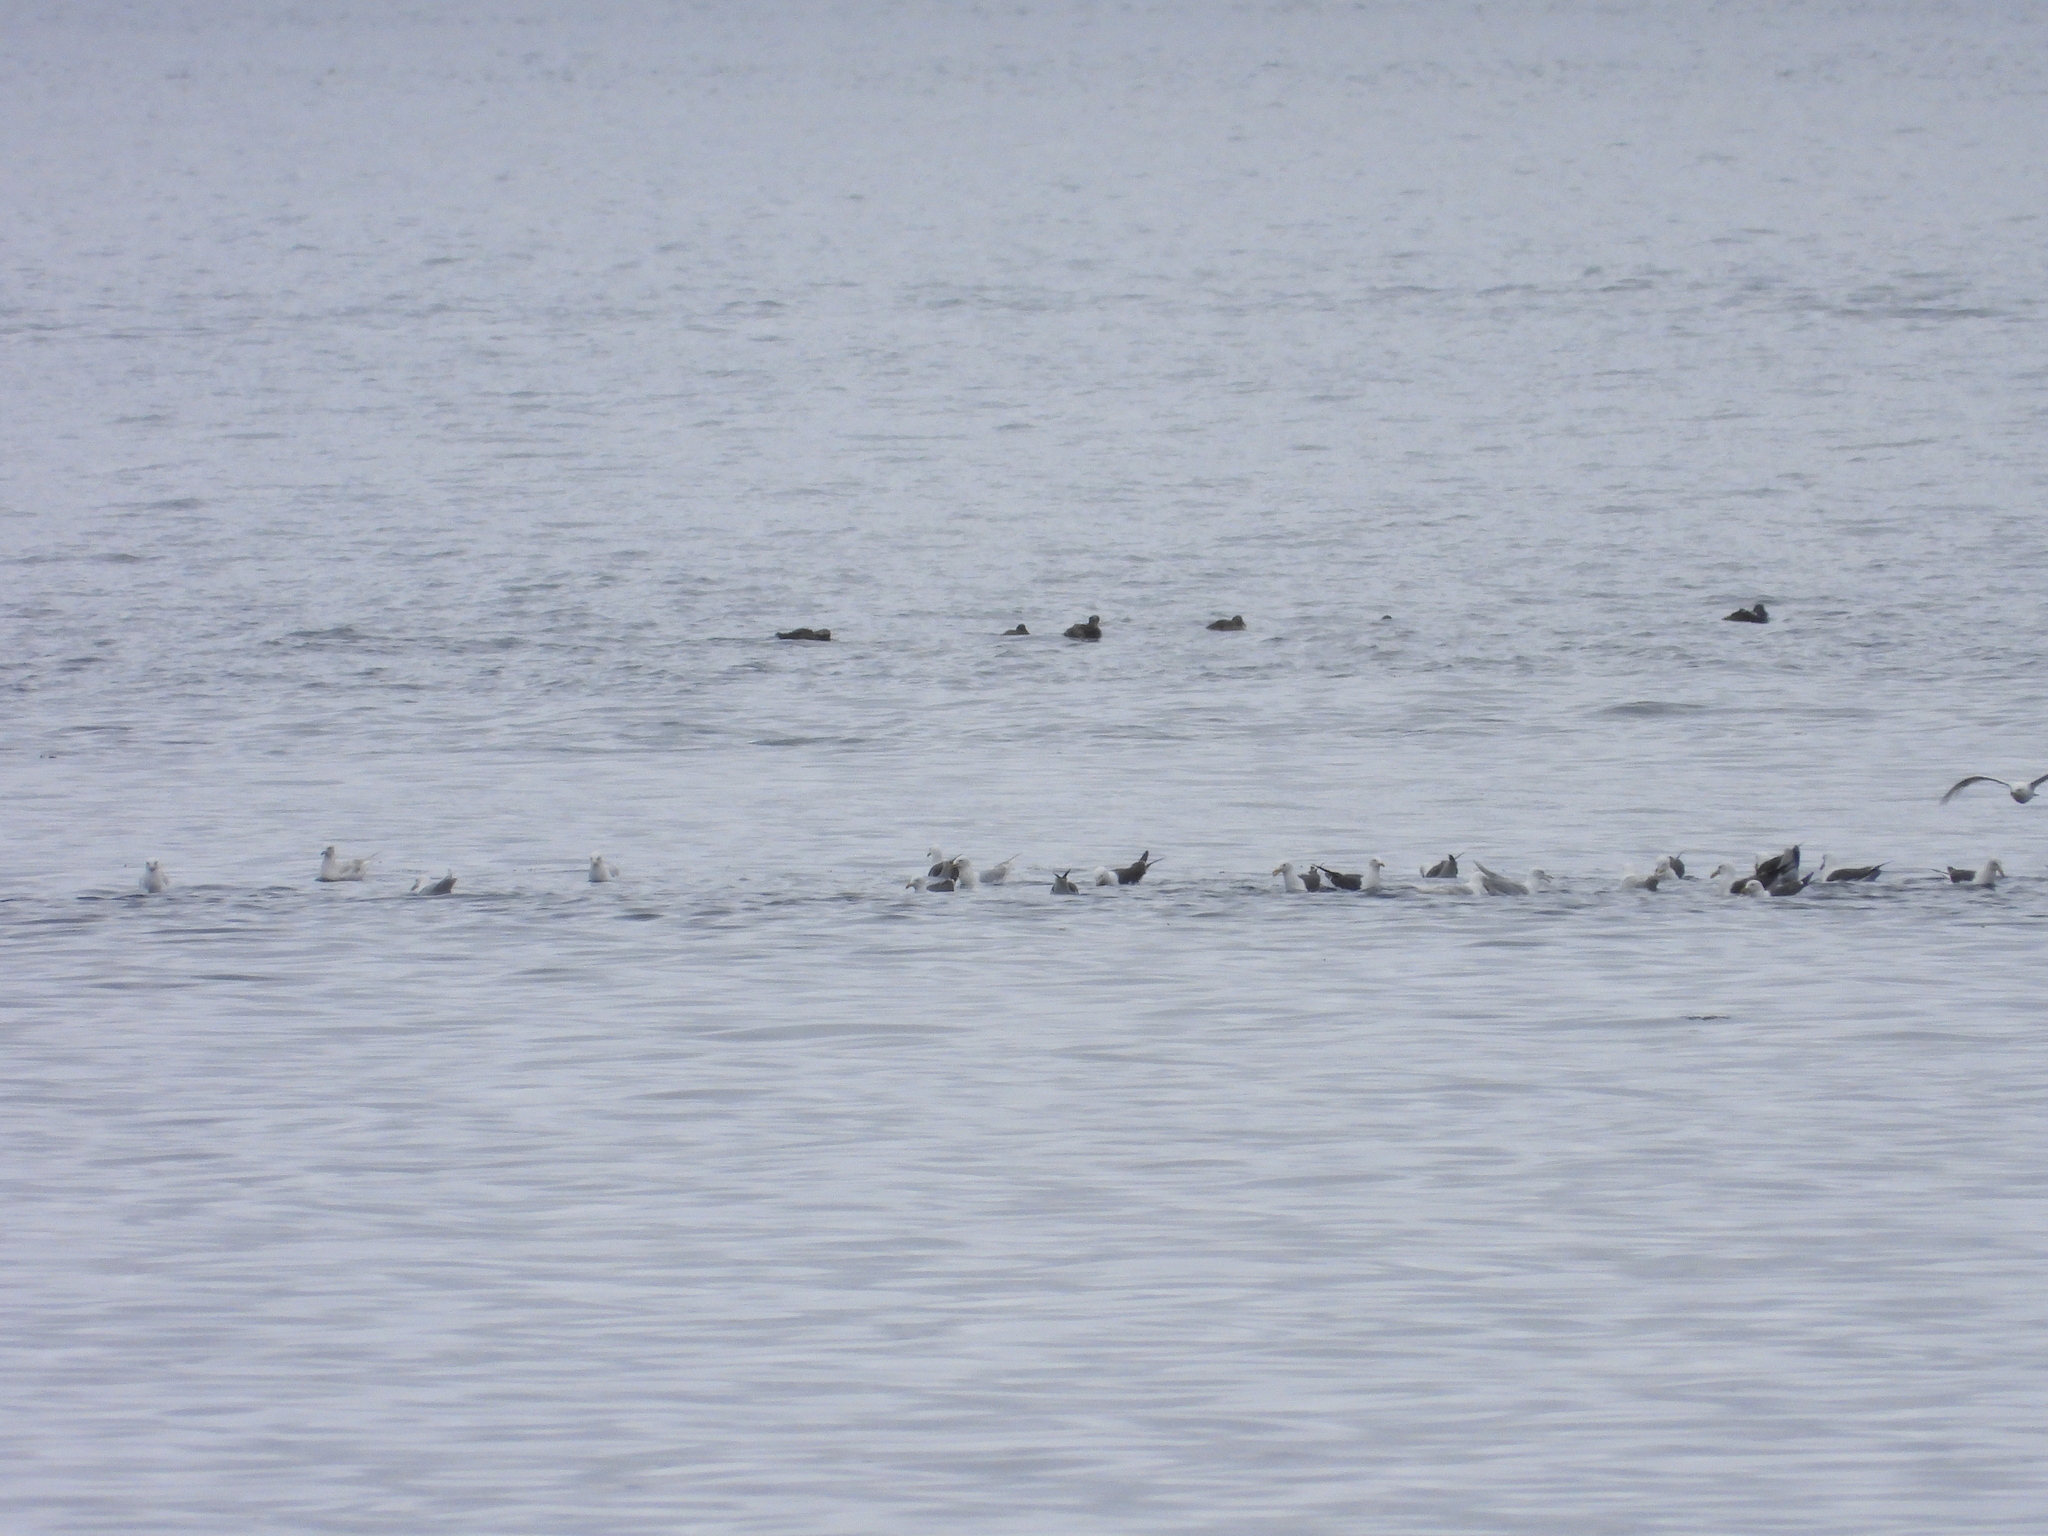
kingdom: Animalia
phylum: Chordata
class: Aves
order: Anseriformes
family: Anatidae
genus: Somateria
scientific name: Somateria mollissima
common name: Common eider
